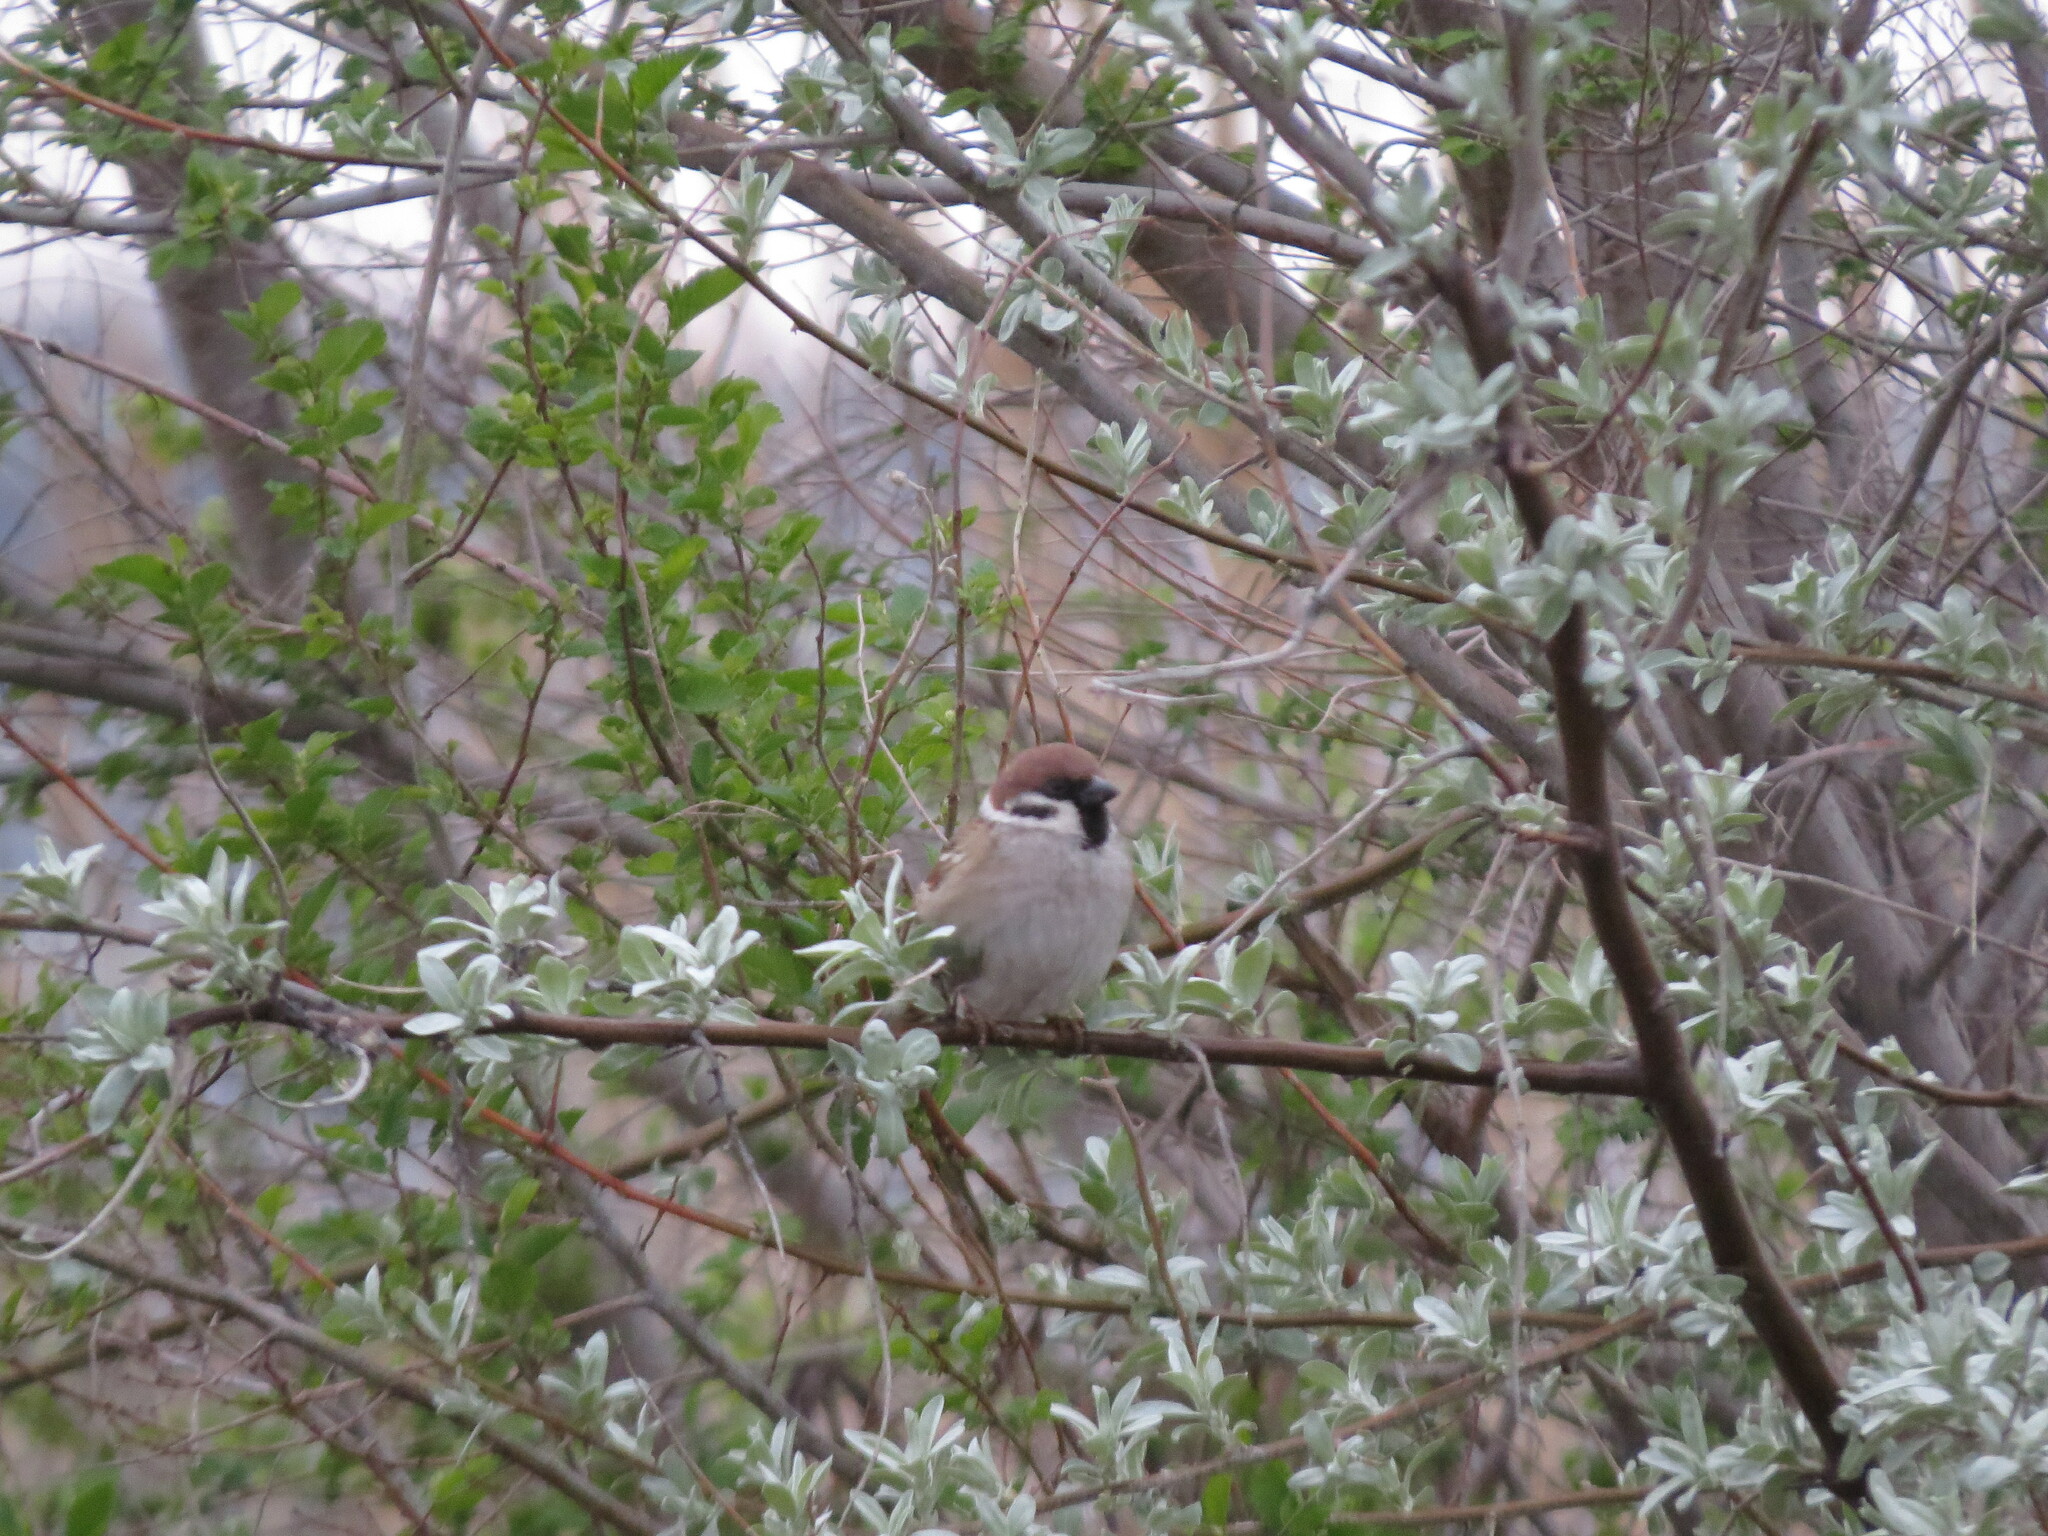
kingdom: Animalia
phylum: Chordata
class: Aves
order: Passeriformes
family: Passeridae
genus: Passer
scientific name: Passer montanus
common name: Eurasian tree sparrow
